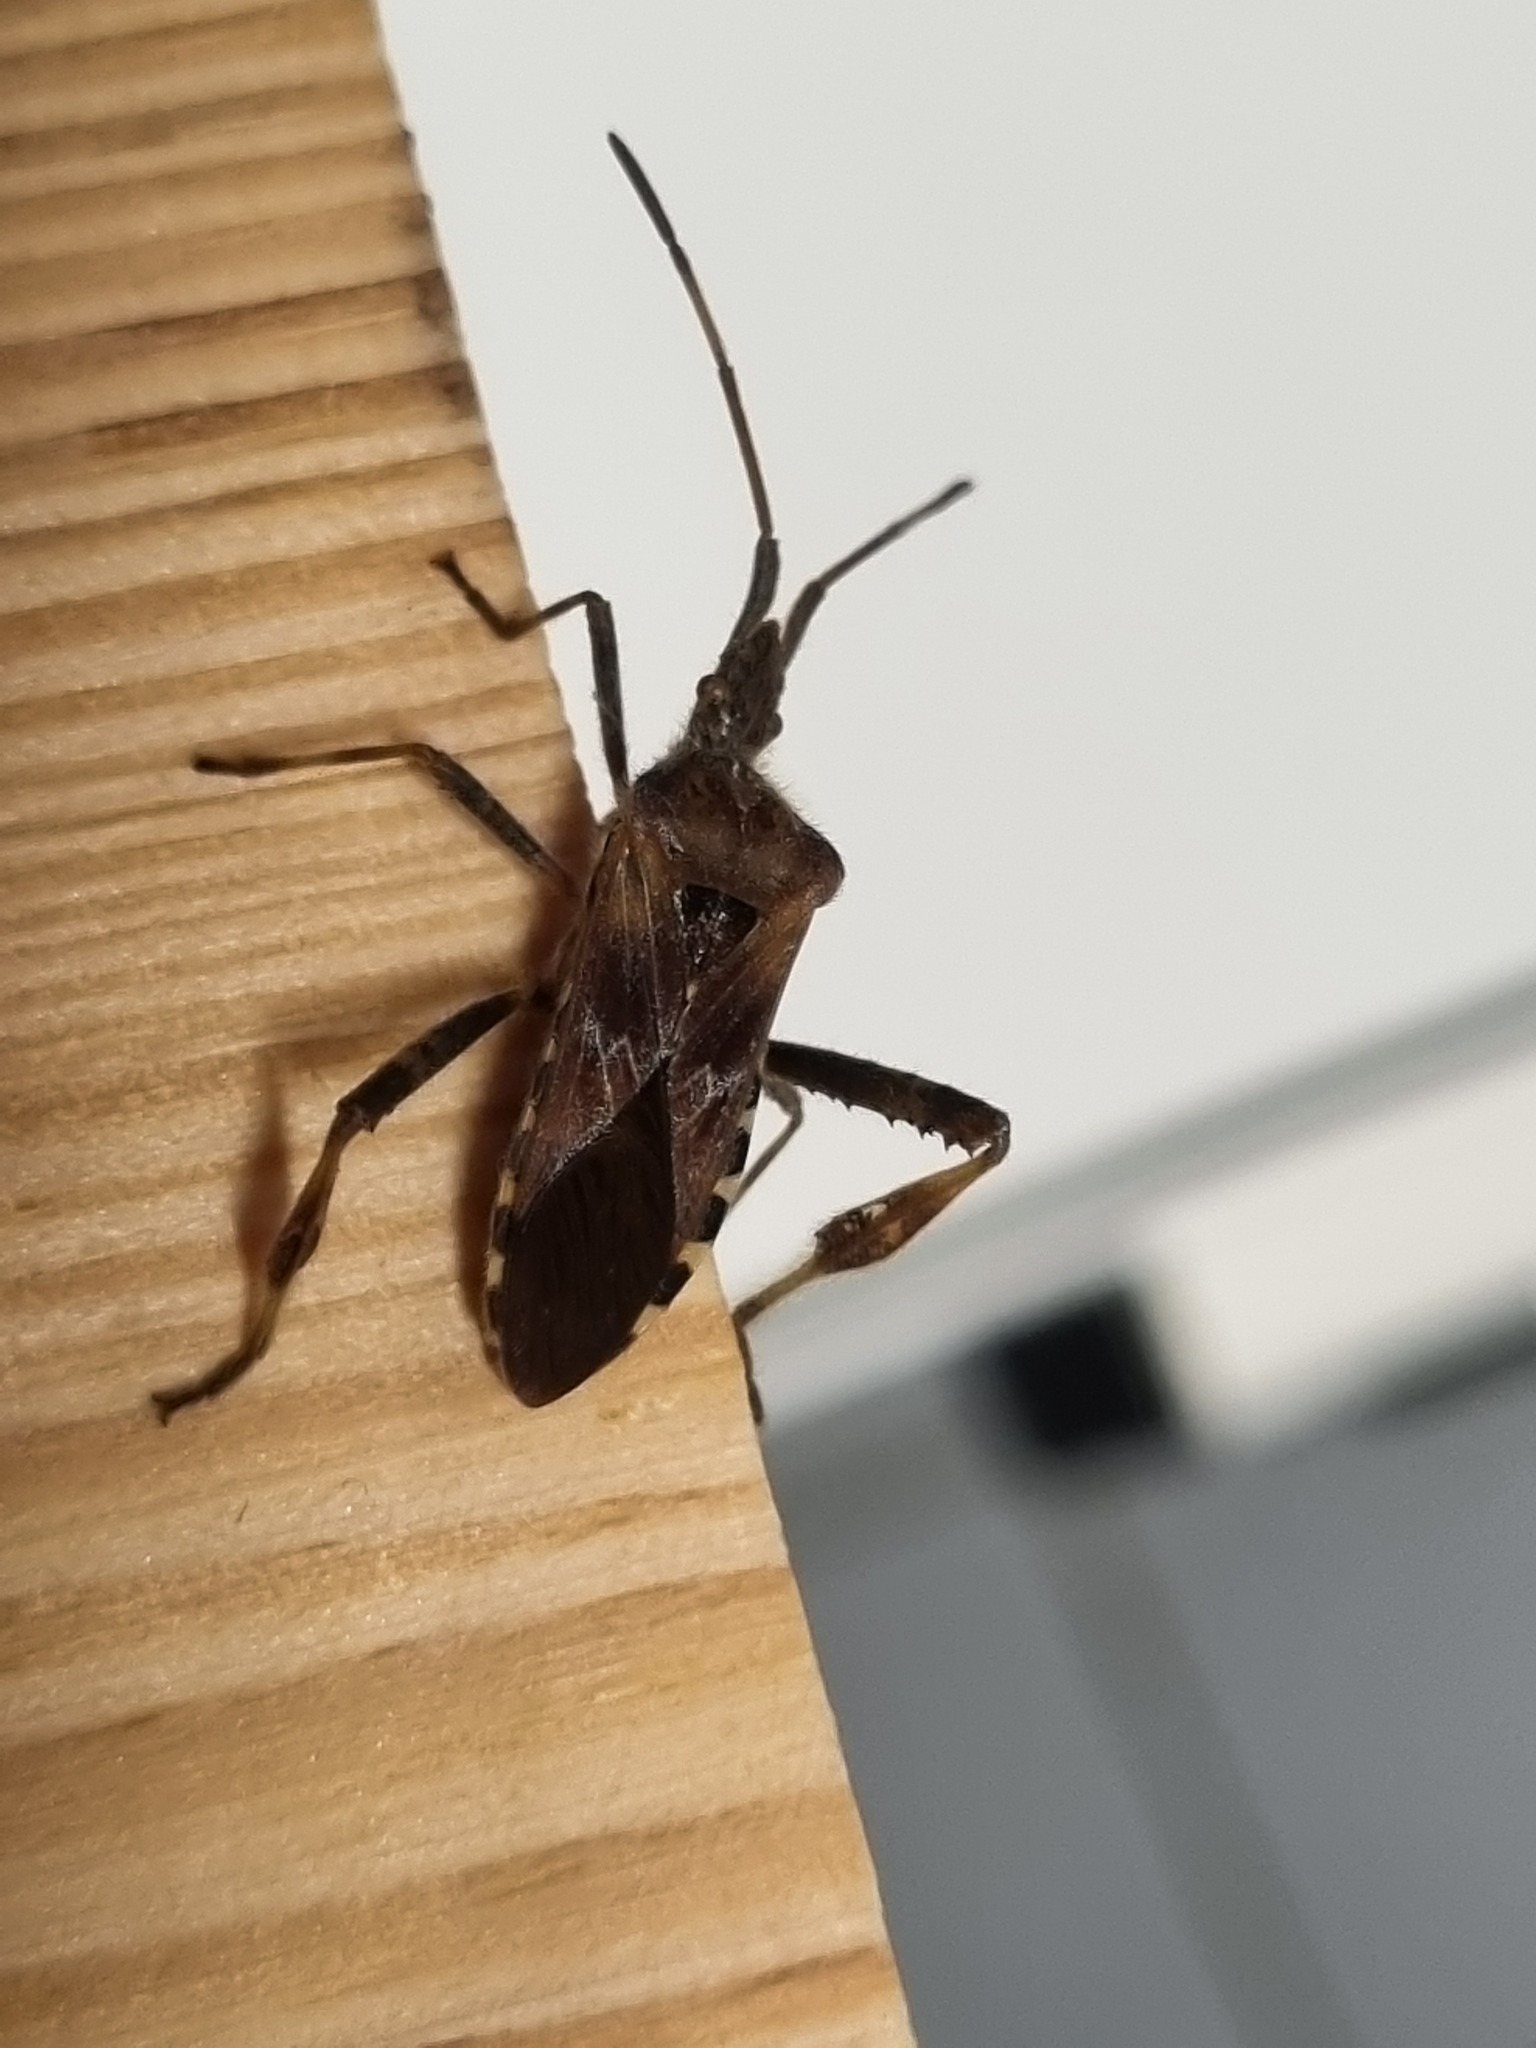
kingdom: Animalia
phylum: Arthropoda
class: Insecta
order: Hemiptera
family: Coreidae
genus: Leptoglossus
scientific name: Leptoglossus occidentalis
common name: Western conifer-seed bug
